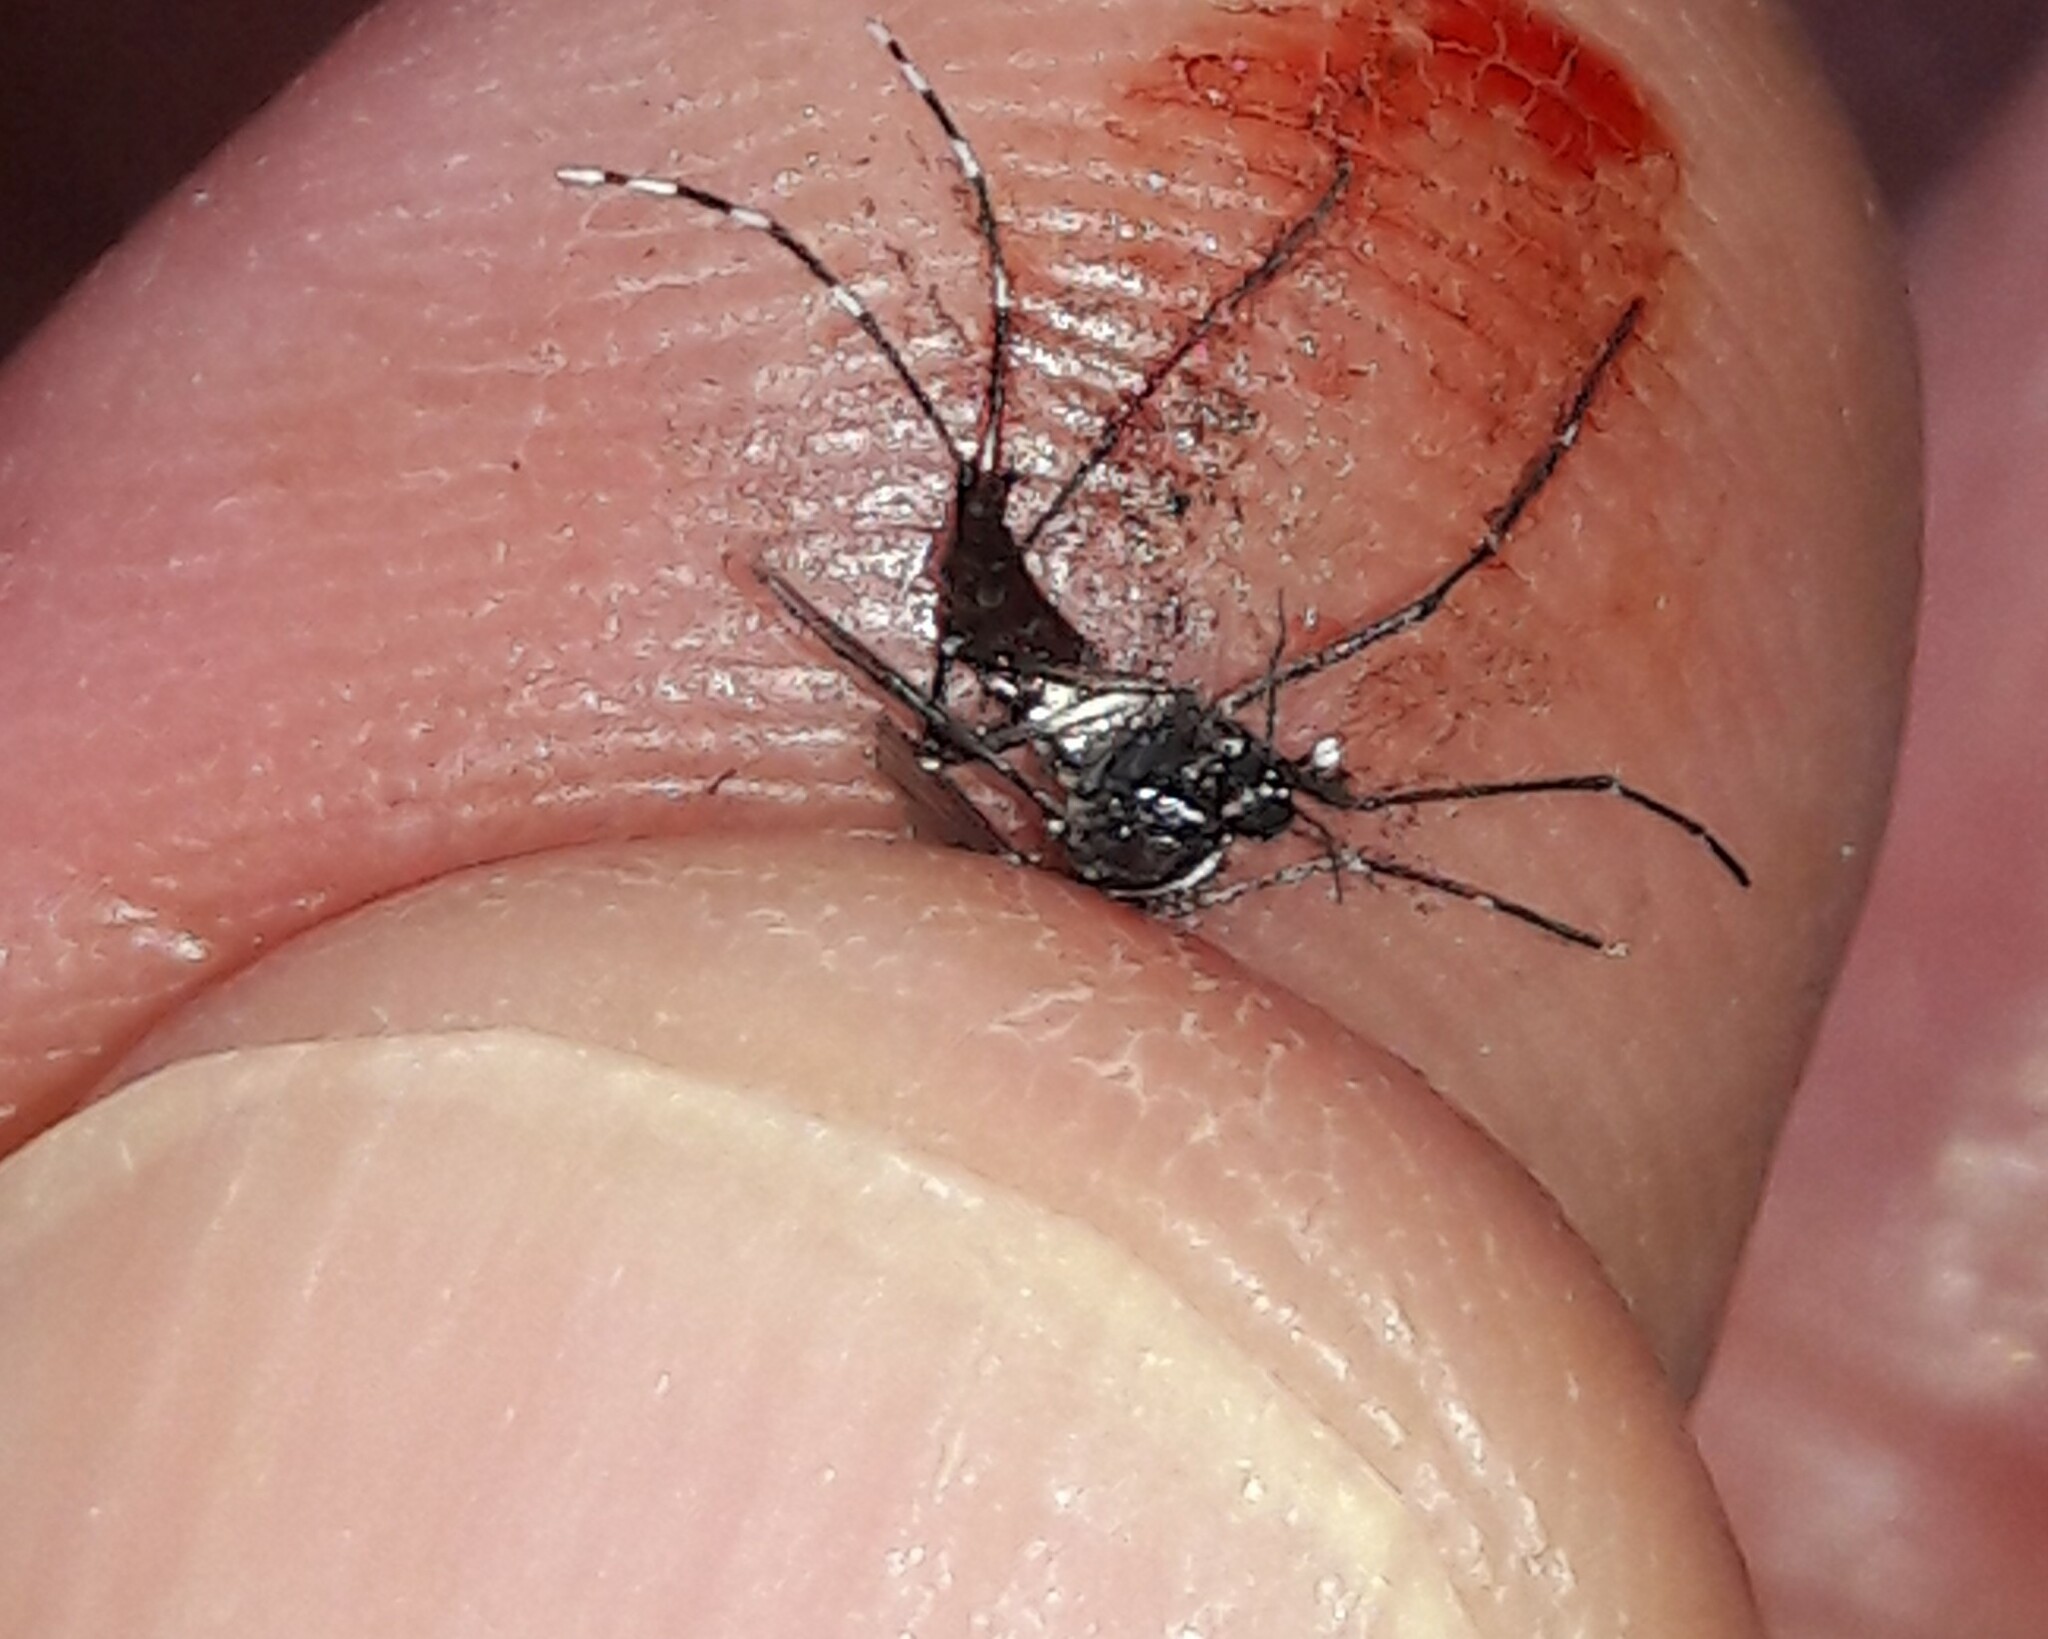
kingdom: Animalia
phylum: Arthropoda
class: Insecta
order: Diptera
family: Culicidae
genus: Aedes
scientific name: Aedes albopictus
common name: Tiger mosquito
